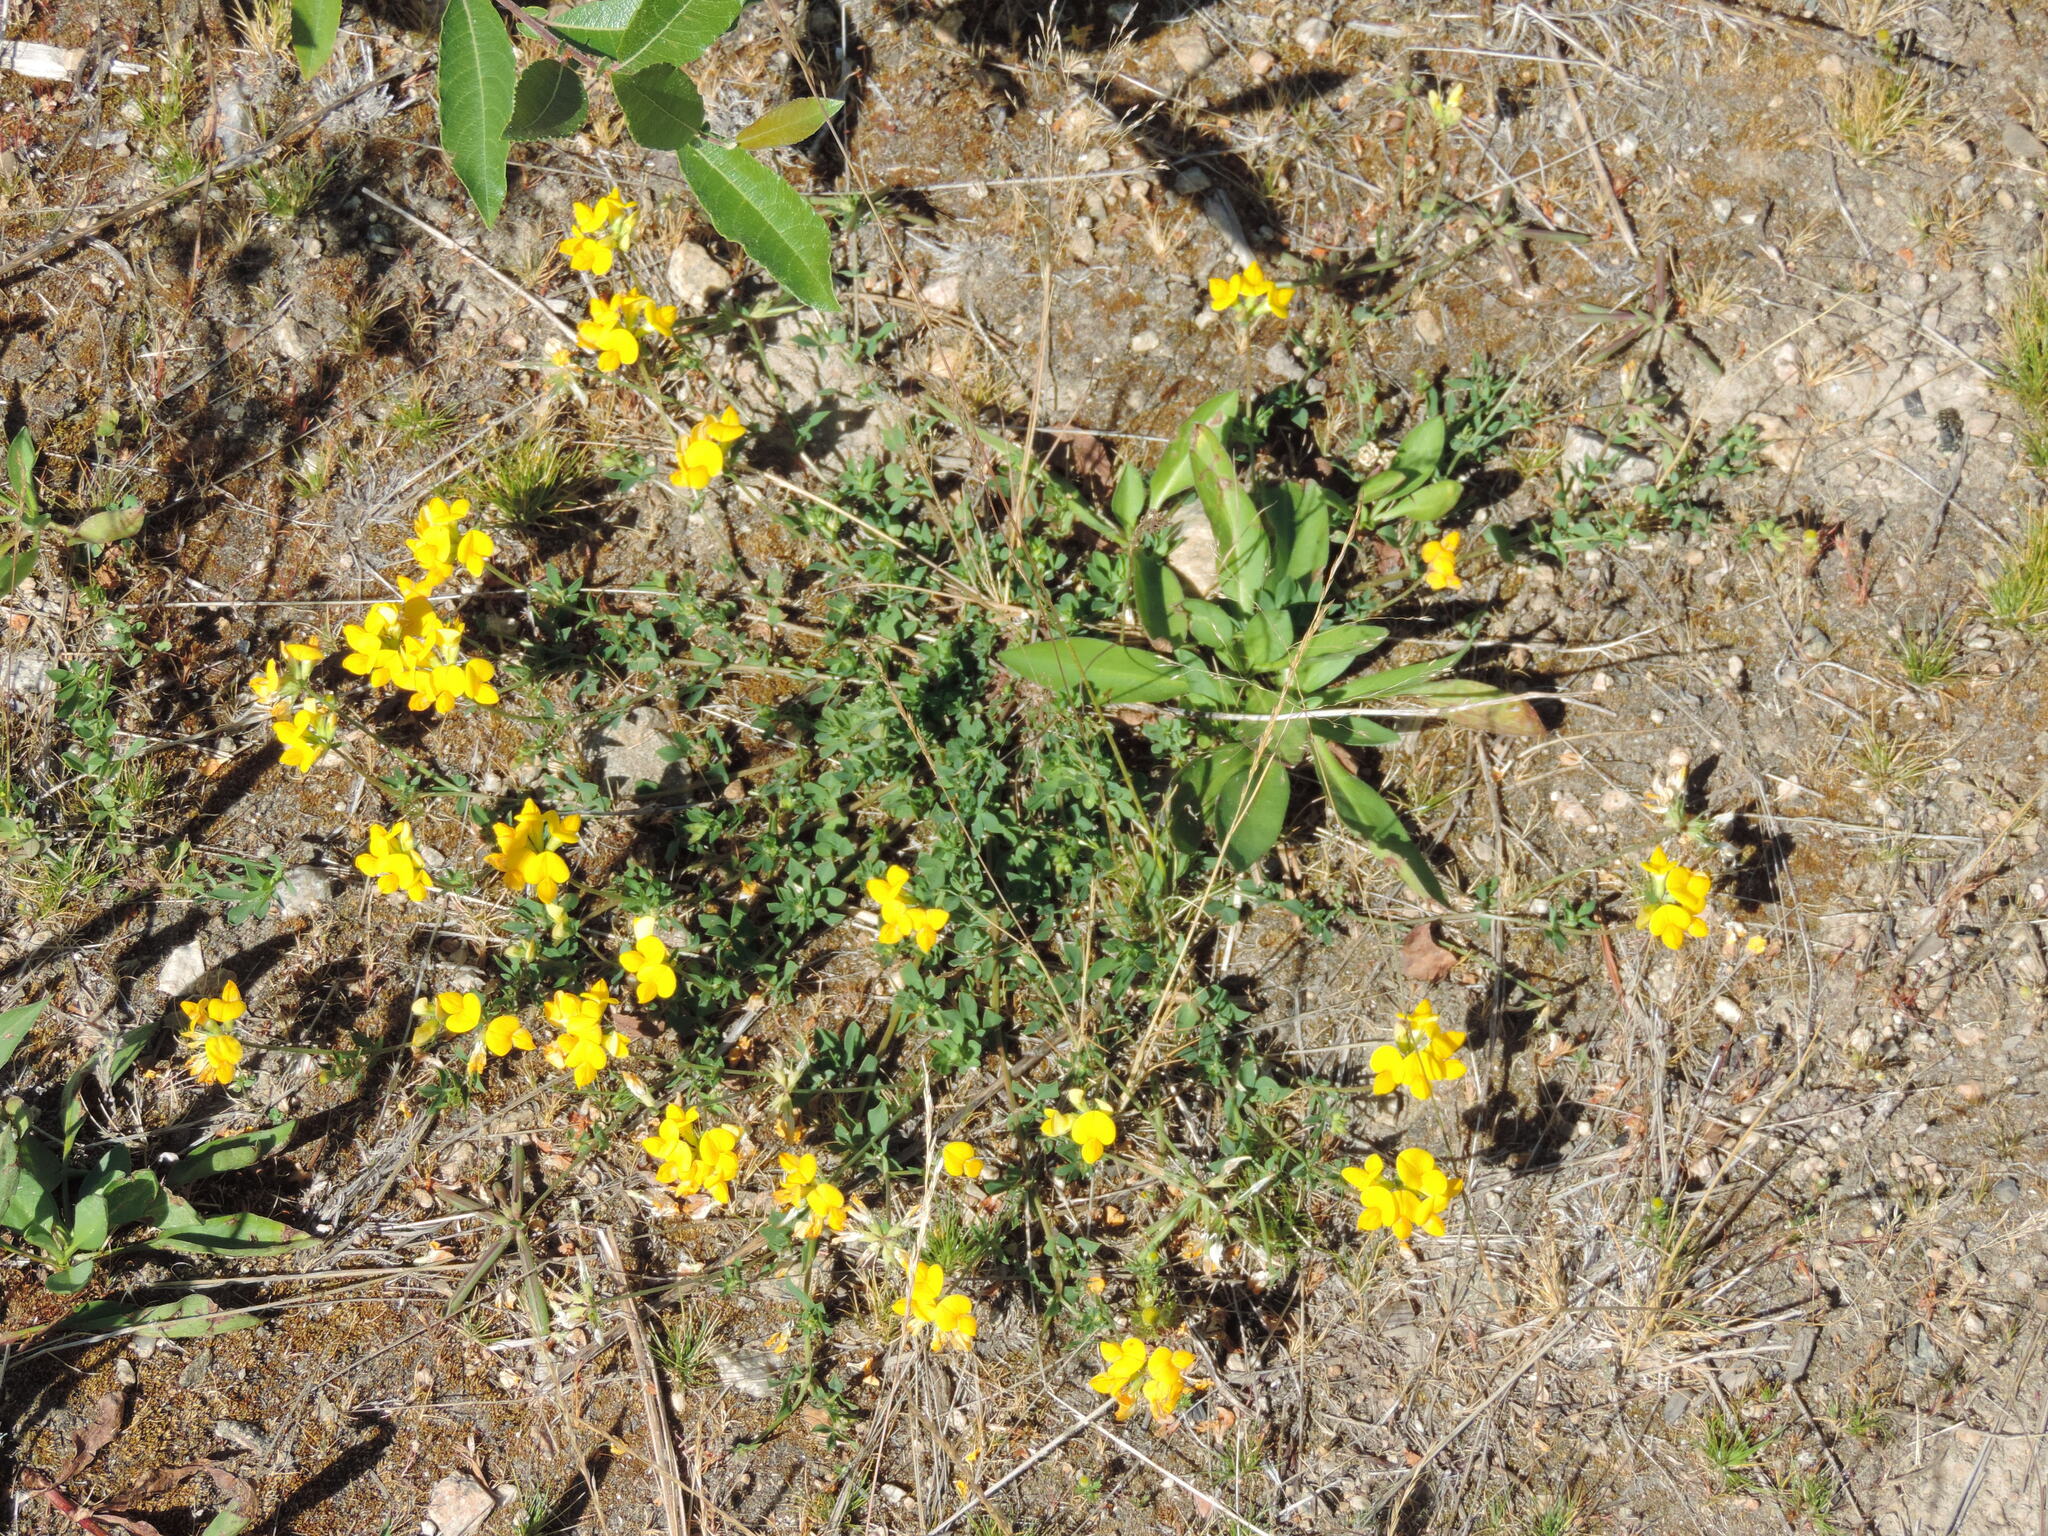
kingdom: Plantae
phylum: Tracheophyta
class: Magnoliopsida
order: Fabales
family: Fabaceae
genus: Lotus
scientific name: Lotus corniculatus
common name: Common bird's-foot-trefoil
